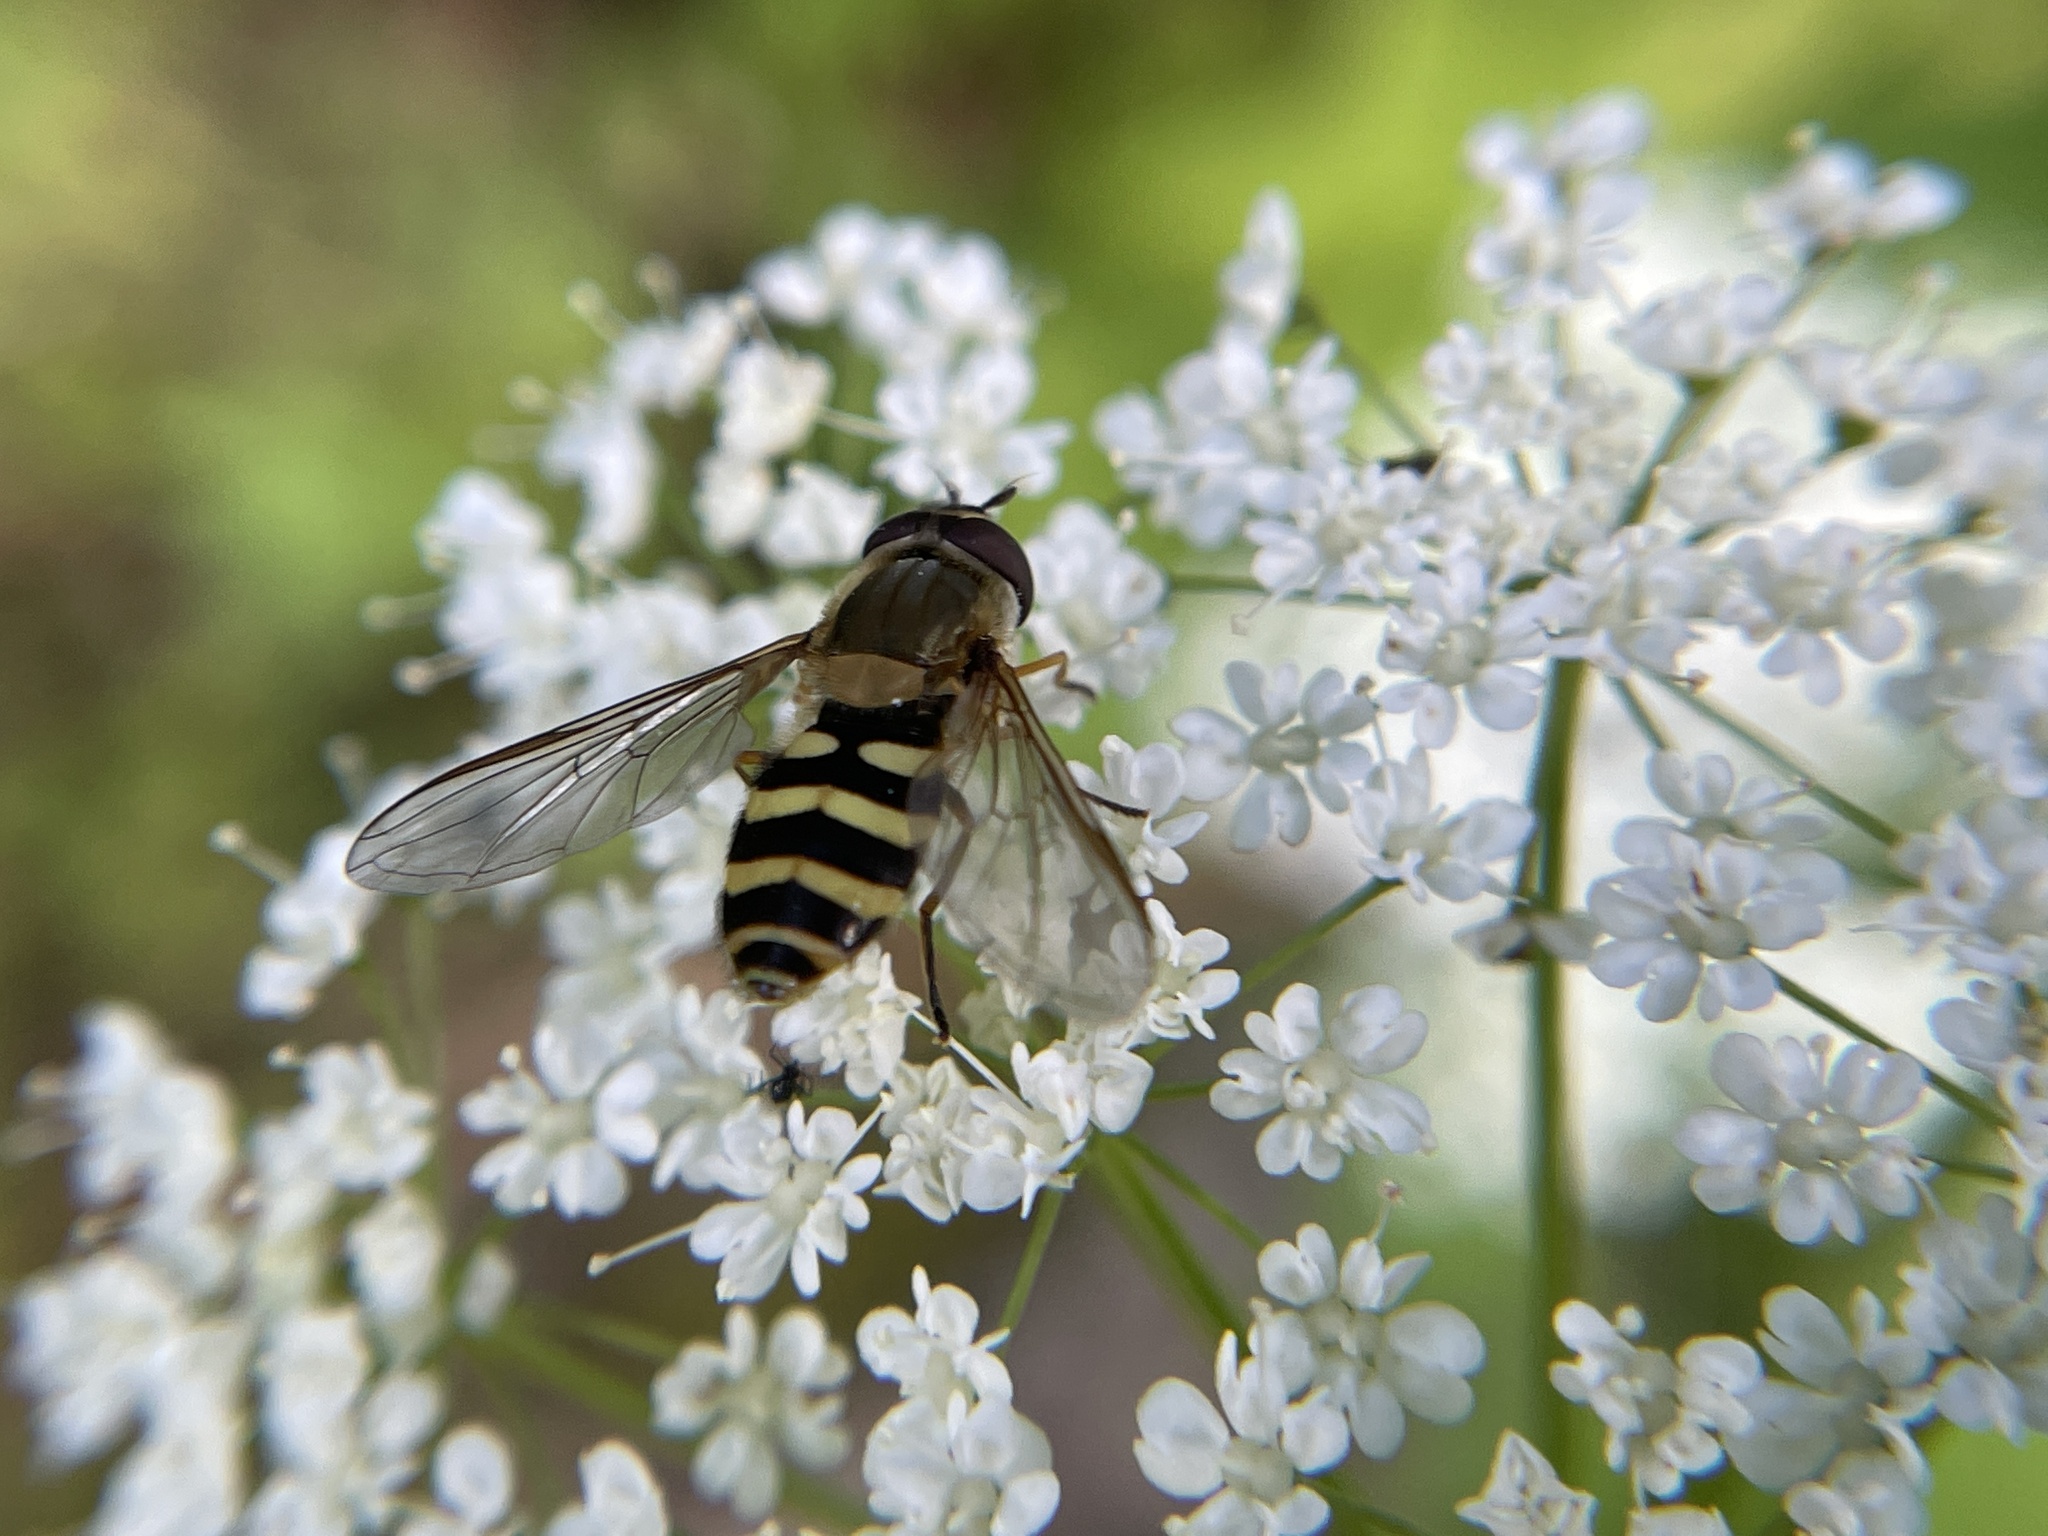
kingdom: Animalia
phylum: Arthropoda
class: Insecta
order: Diptera
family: Syrphidae
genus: Syrphus
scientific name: Syrphus
